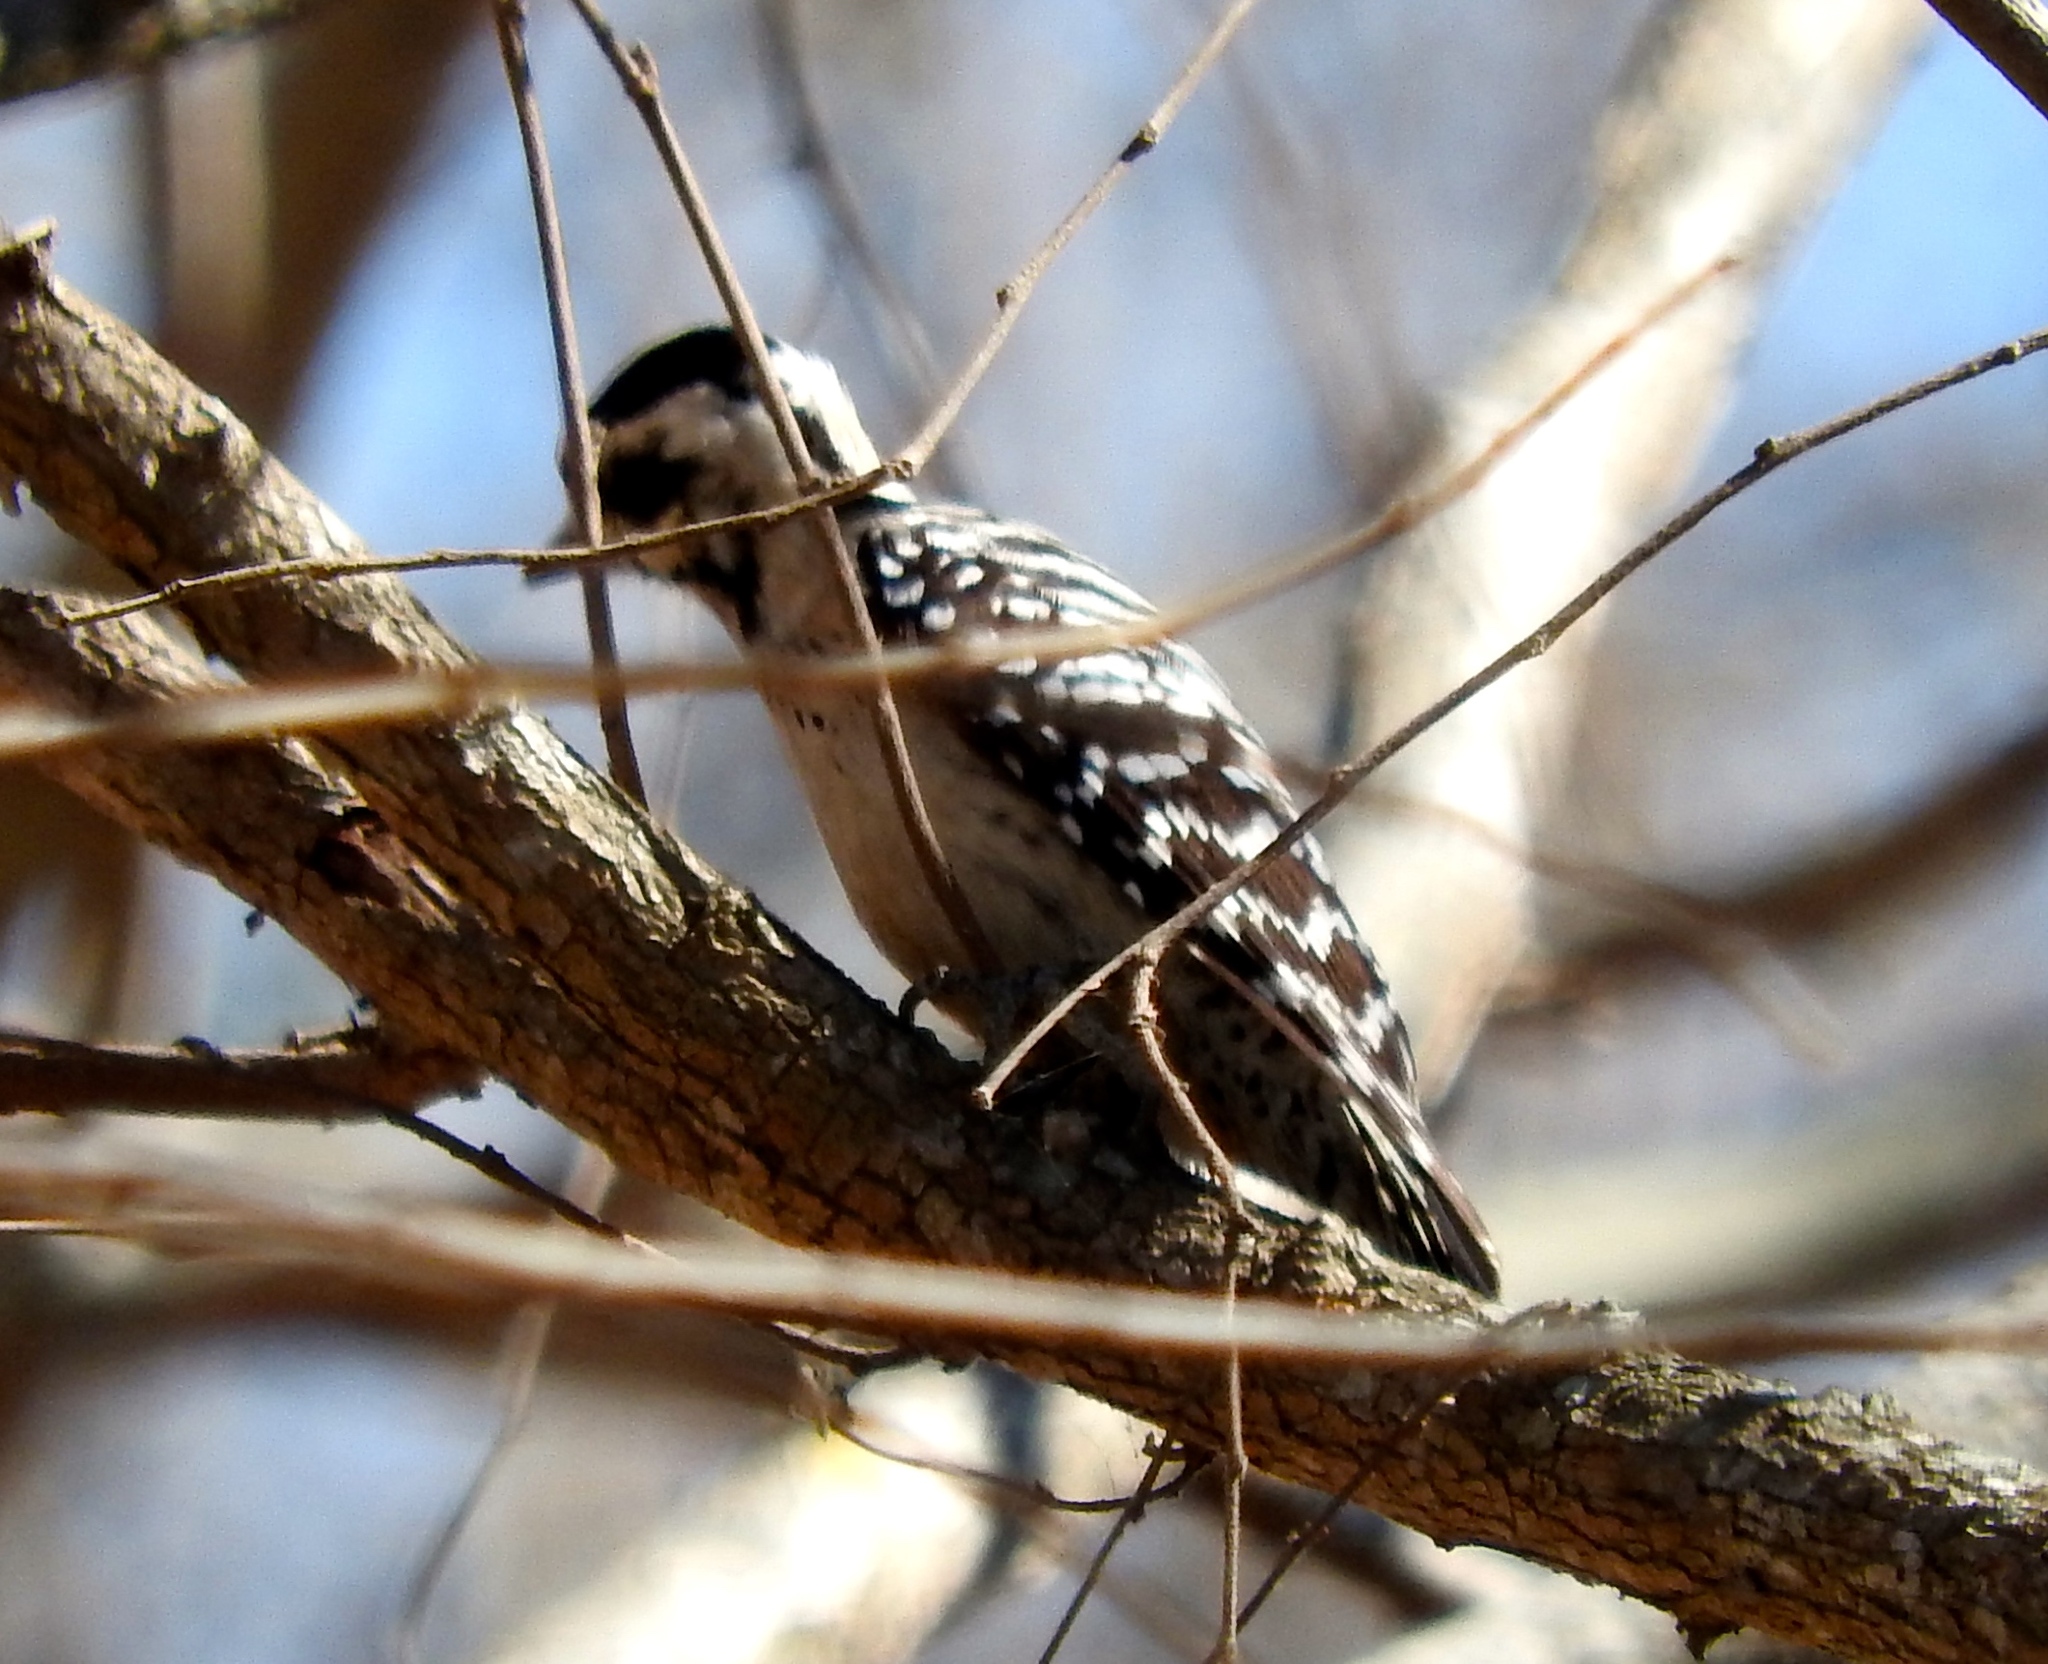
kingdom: Animalia
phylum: Chordata
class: Aves
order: Piciformes
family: Picidae
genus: Dryobates
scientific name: Dryobates scalaris
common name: Ladder-backed woodpecker
